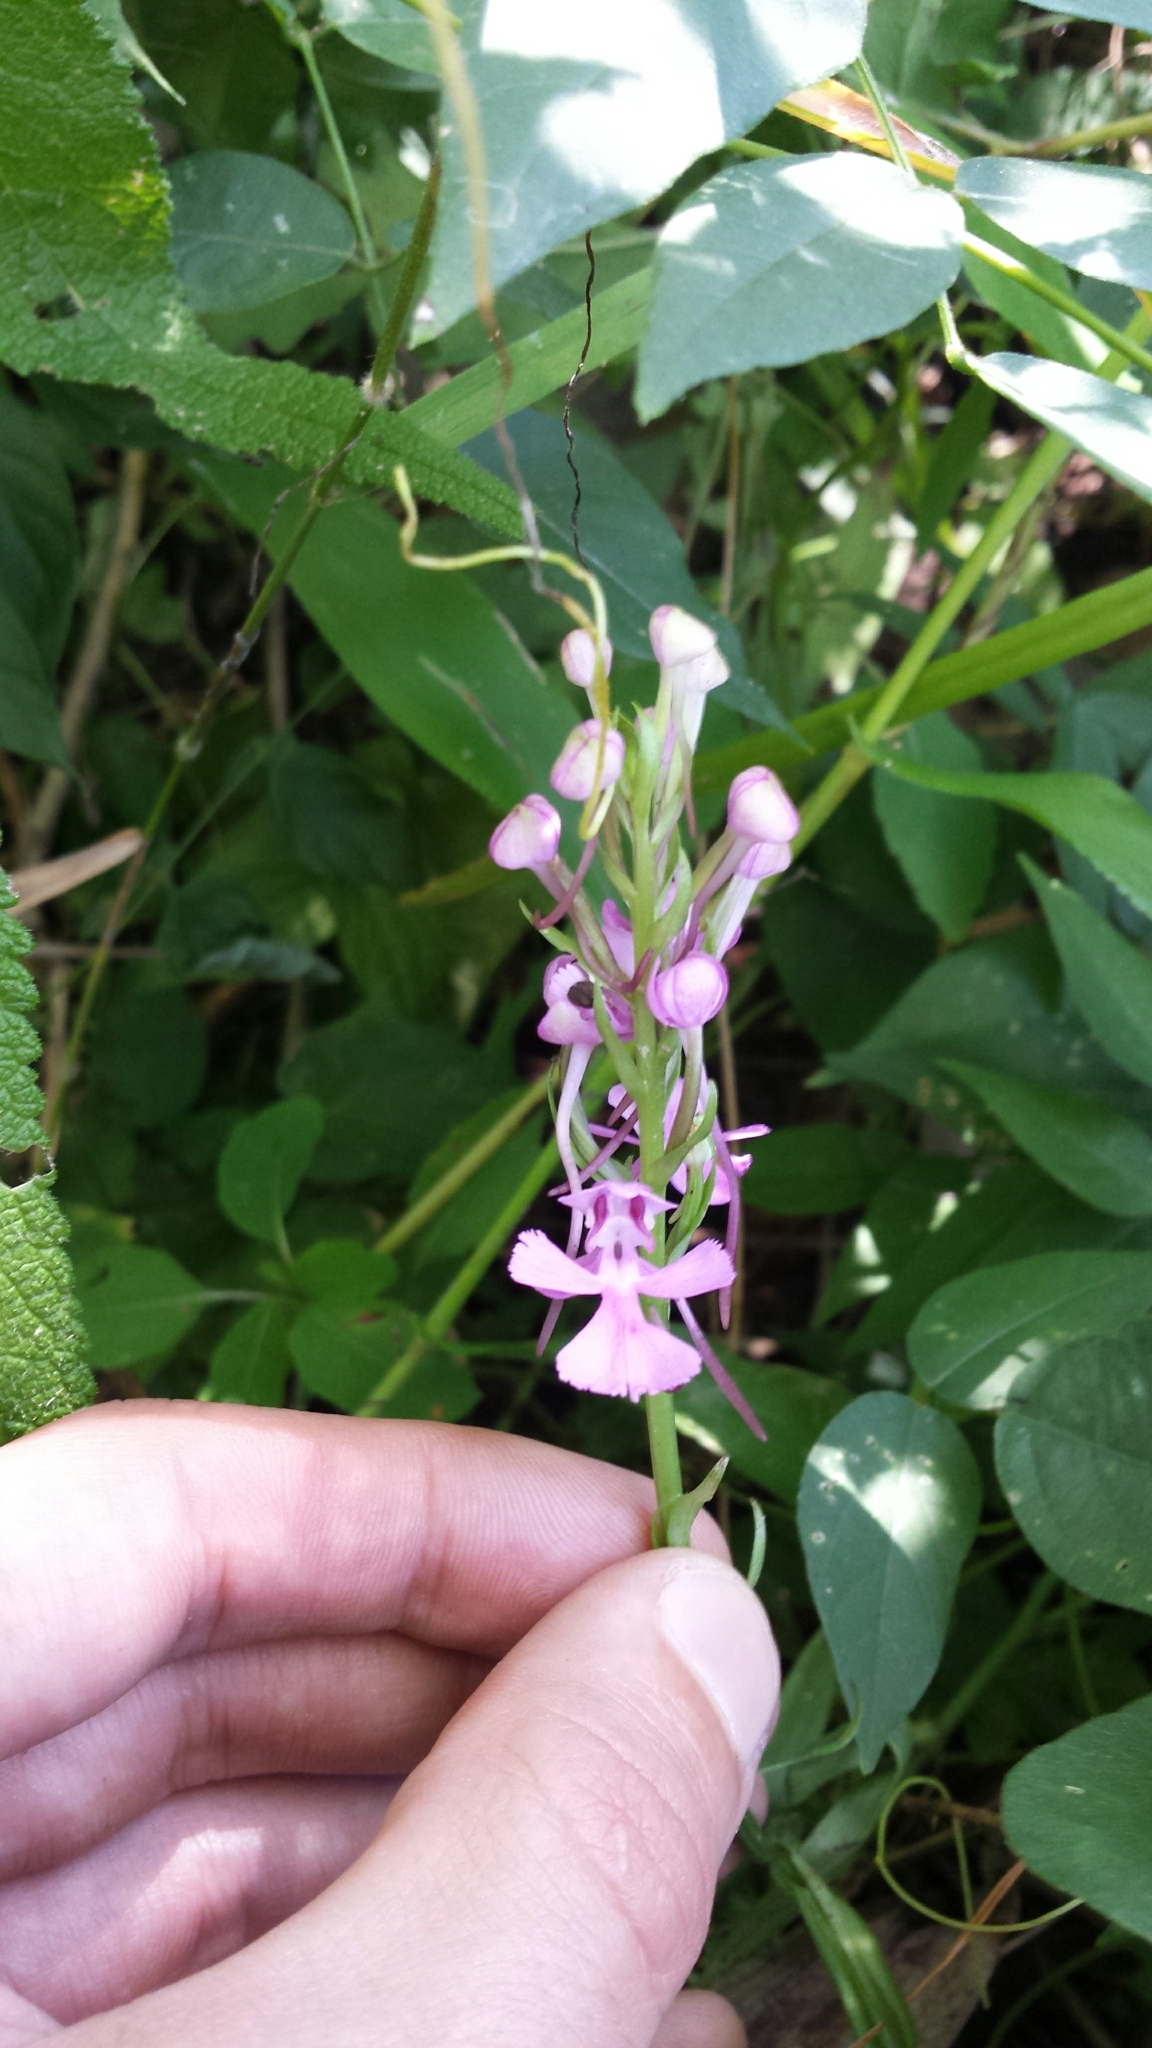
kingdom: Plantae
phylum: Tracheophyta
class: Liliopsida
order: Asparagales
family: Orchidaceae
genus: Platanthera
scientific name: Platanthera peramoena
